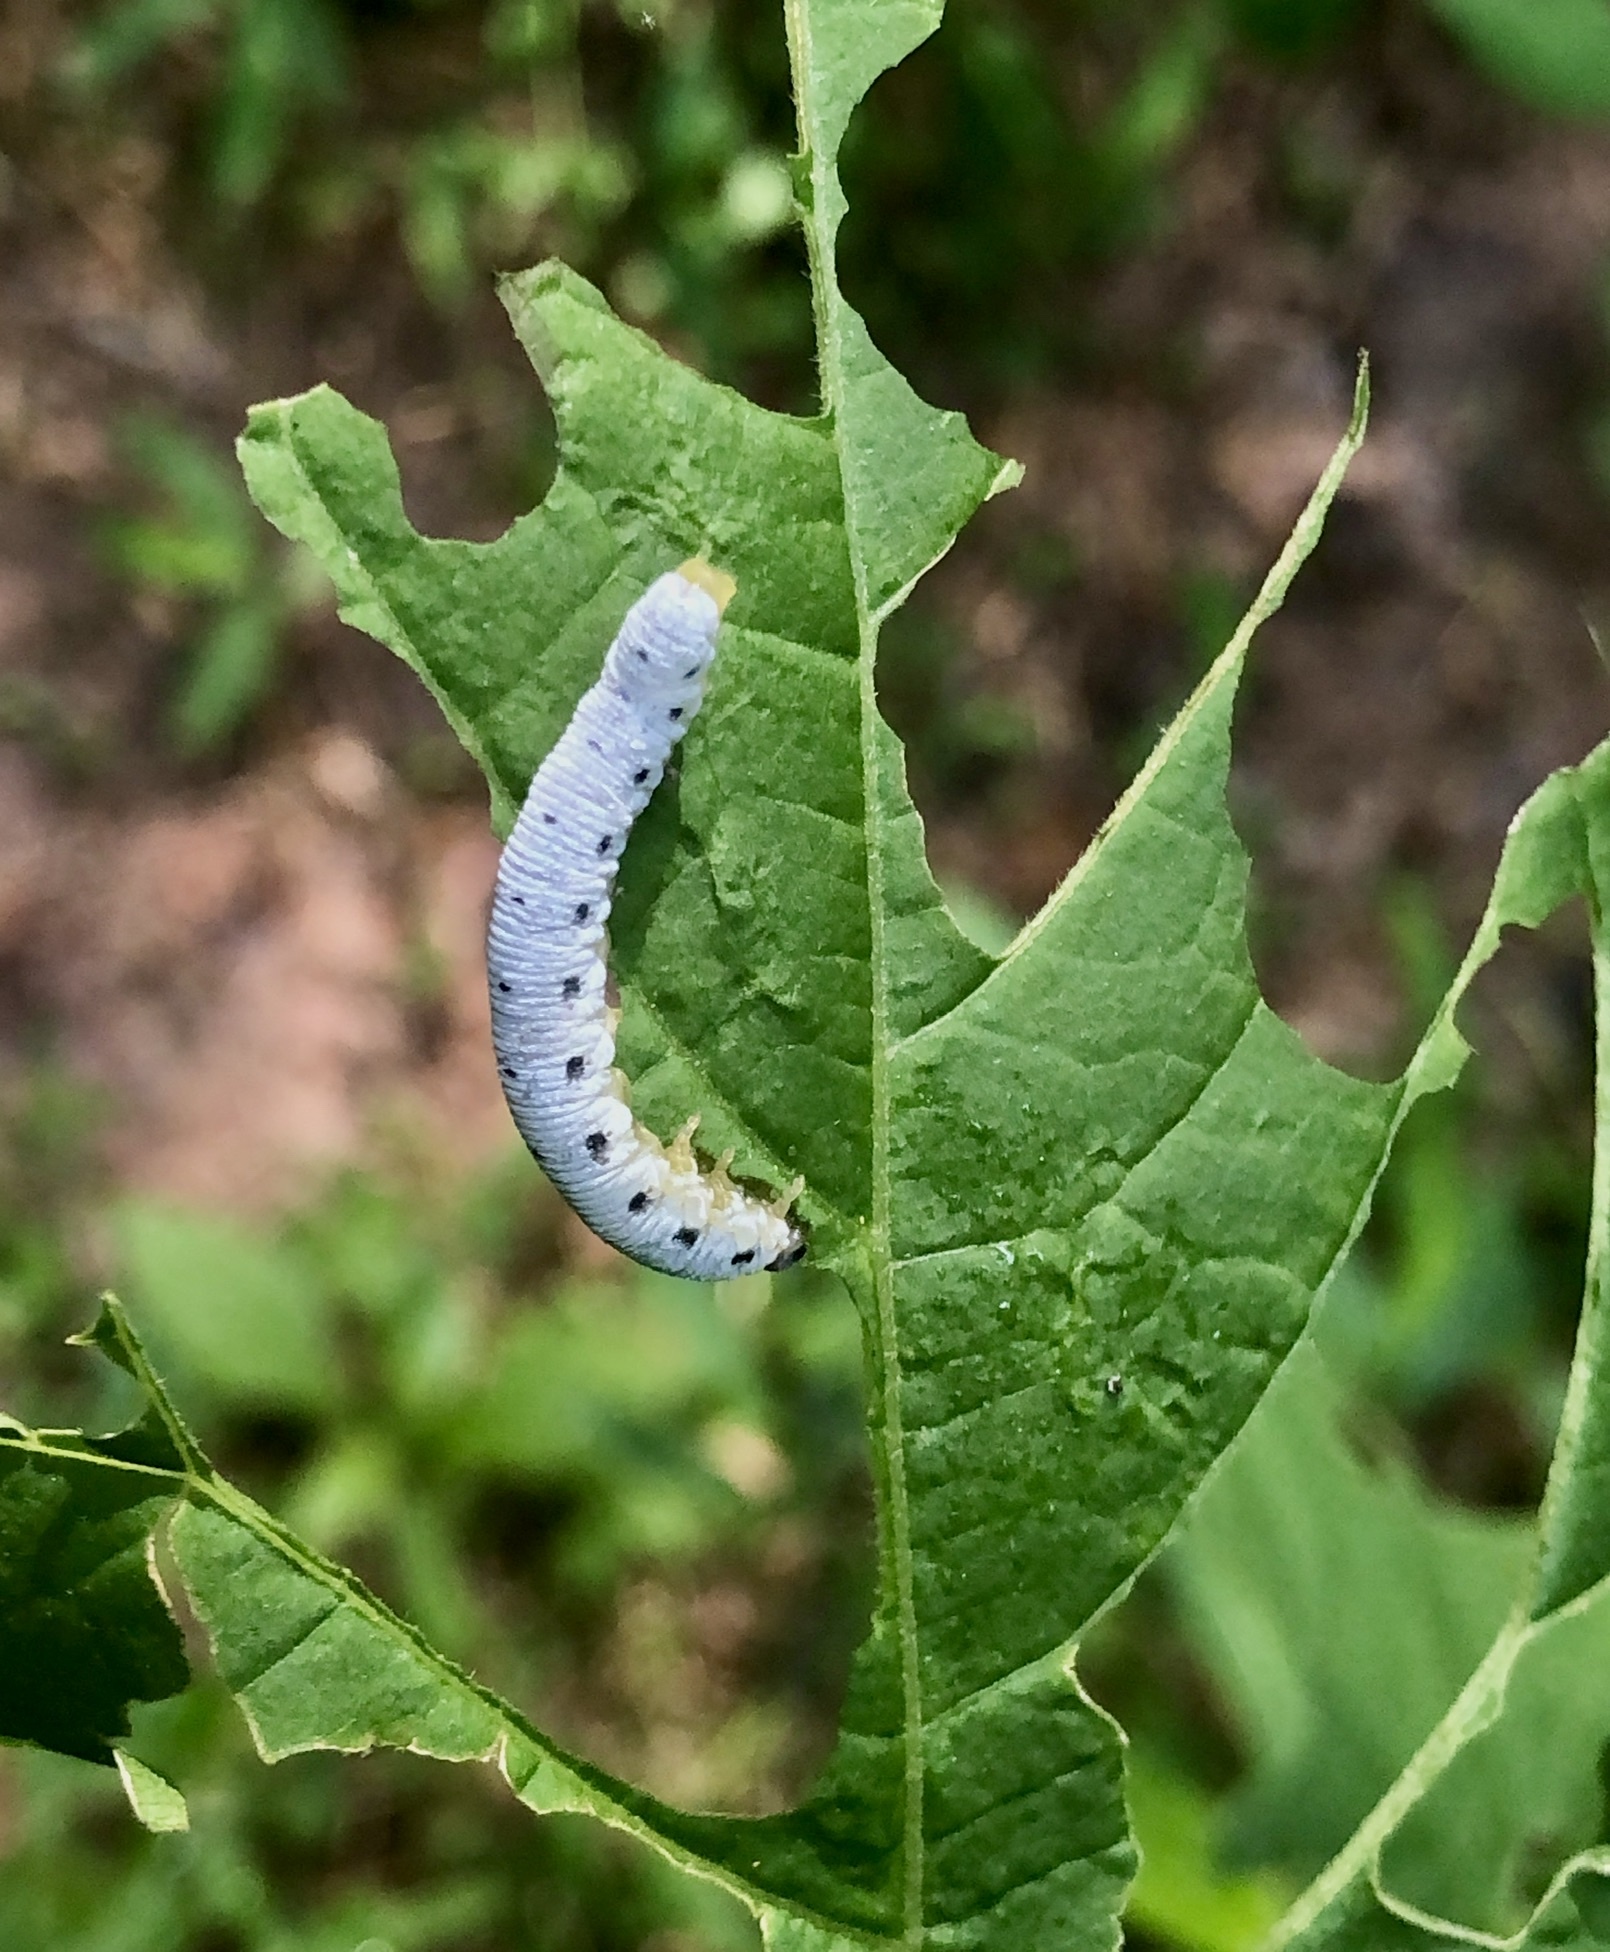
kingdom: Animalia
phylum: Arthropoda
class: Insecta
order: Hymenoptera
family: Tenthredinidae
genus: Macrophya
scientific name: Macrophya
